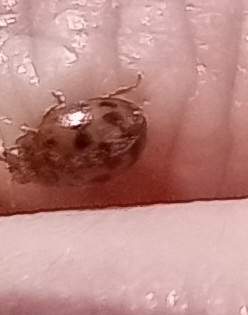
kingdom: Animalia
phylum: Arthropoda
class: Insecta
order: Coleoptera
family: Coccinellidae
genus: Subcoccinella
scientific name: Subcoccinella vigintiquatuorpunctata
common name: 24-spot ladybird
